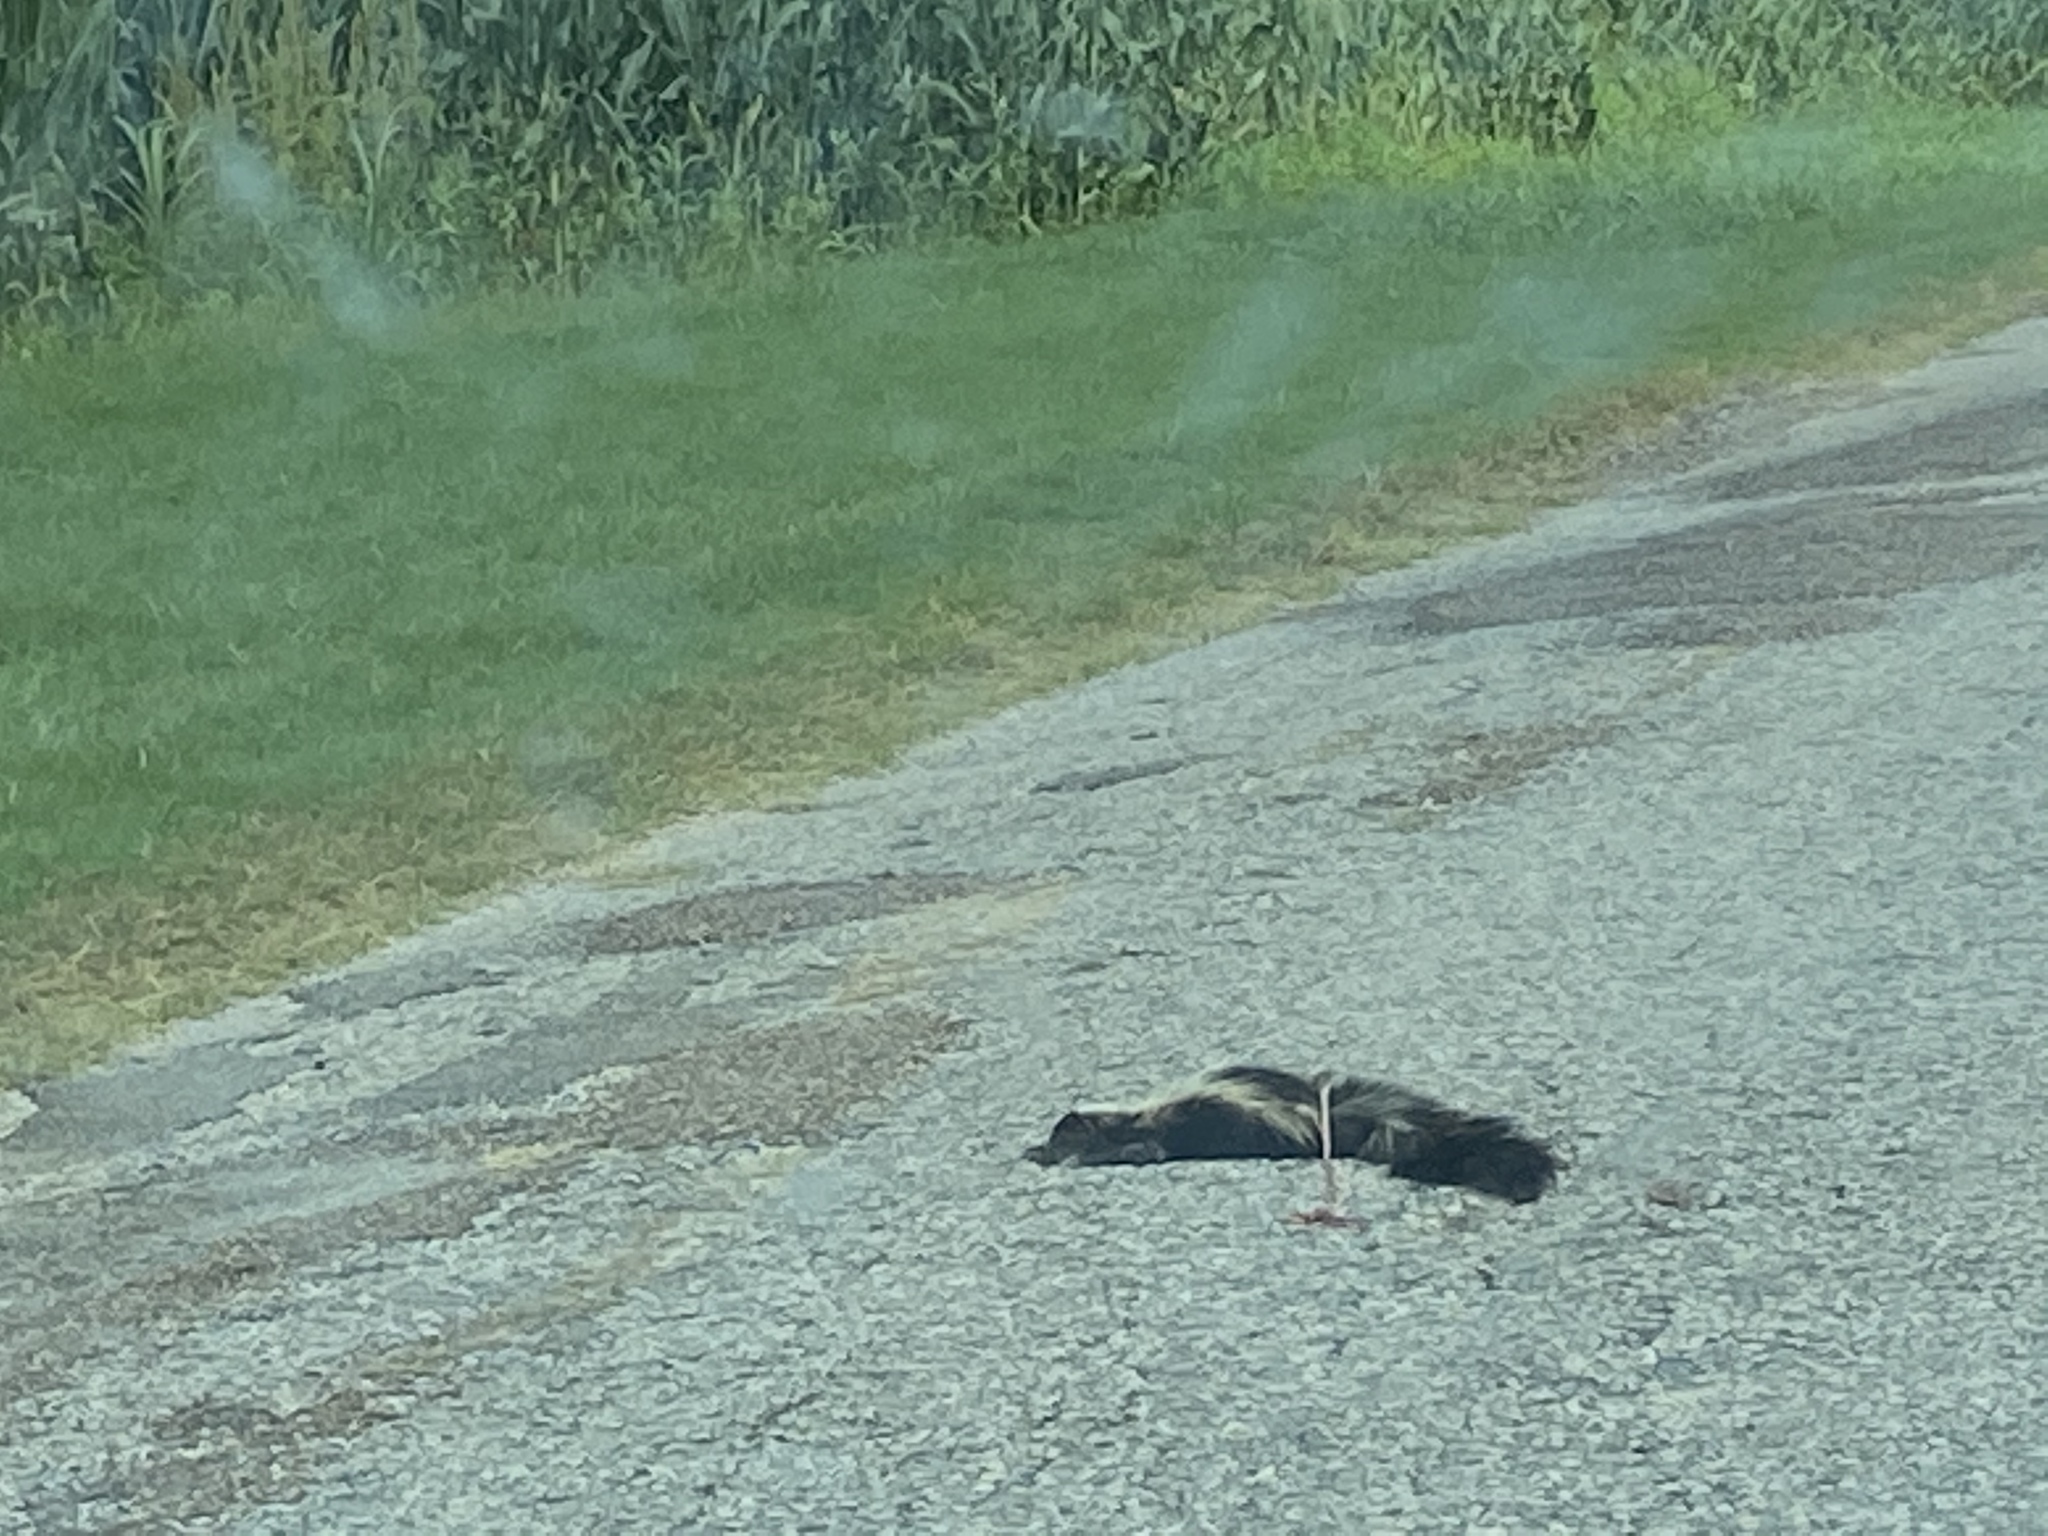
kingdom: Animalia
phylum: Chordata
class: Mammalia
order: Carnivora
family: Mephitidae
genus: Mephitis
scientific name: Mephitis mephitis
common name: Striped skunk
